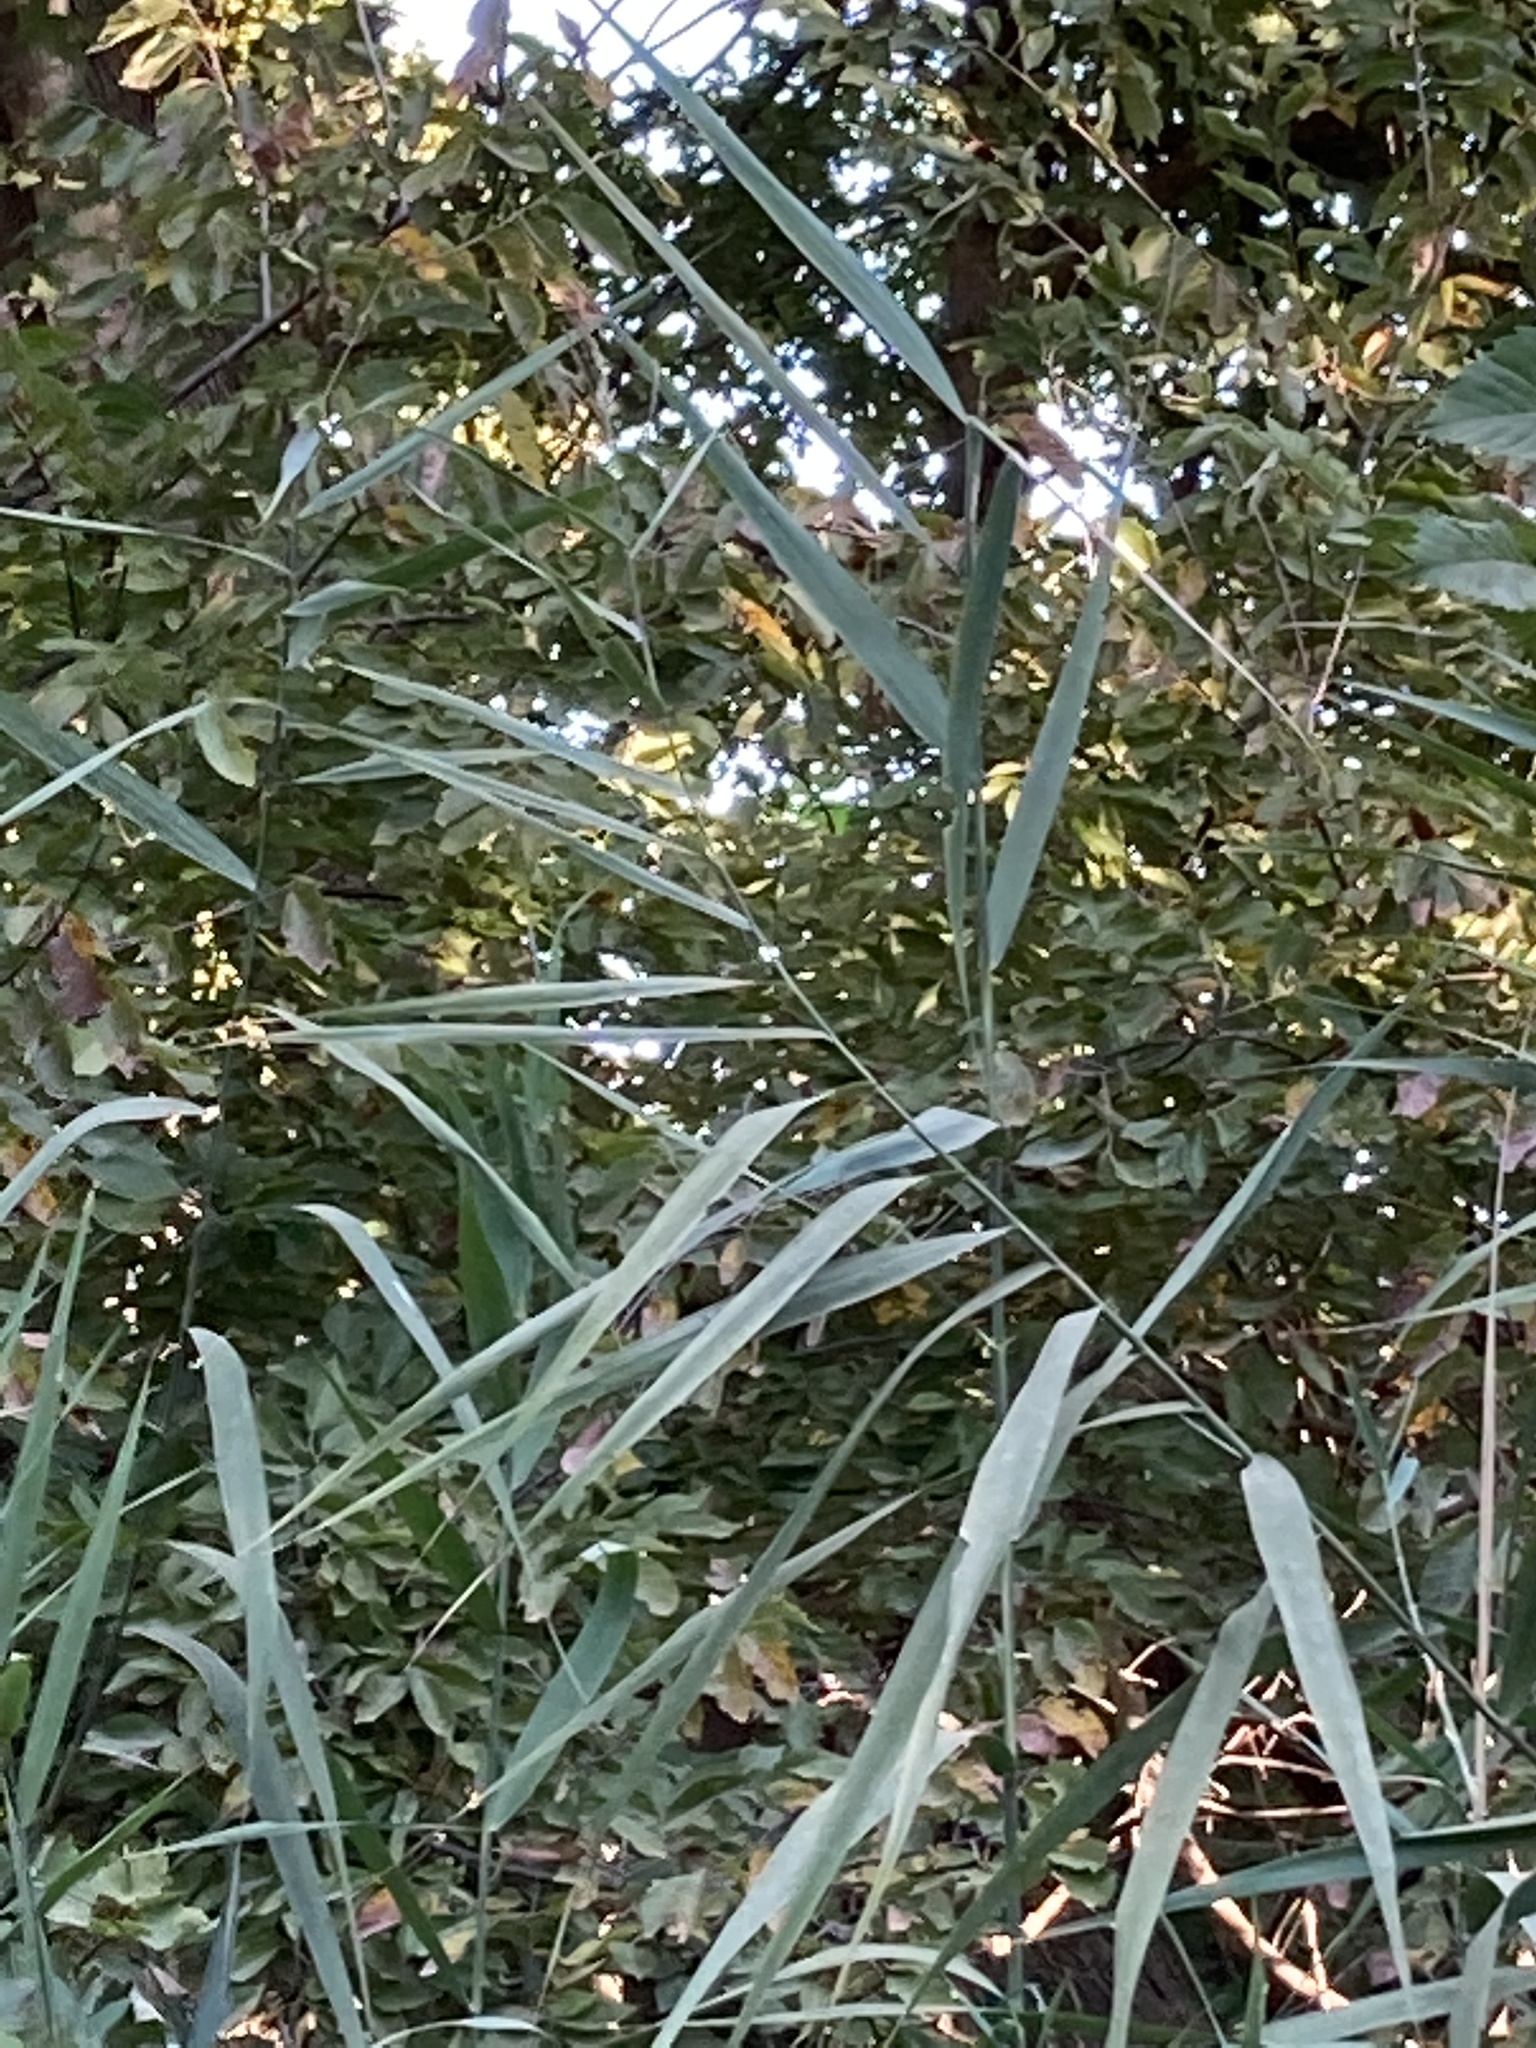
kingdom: Plantae
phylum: Tracheophyta
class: Liliopsida
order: Poales
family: Poaceae
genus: Phragmites
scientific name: Phragmites australis
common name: Common reed
